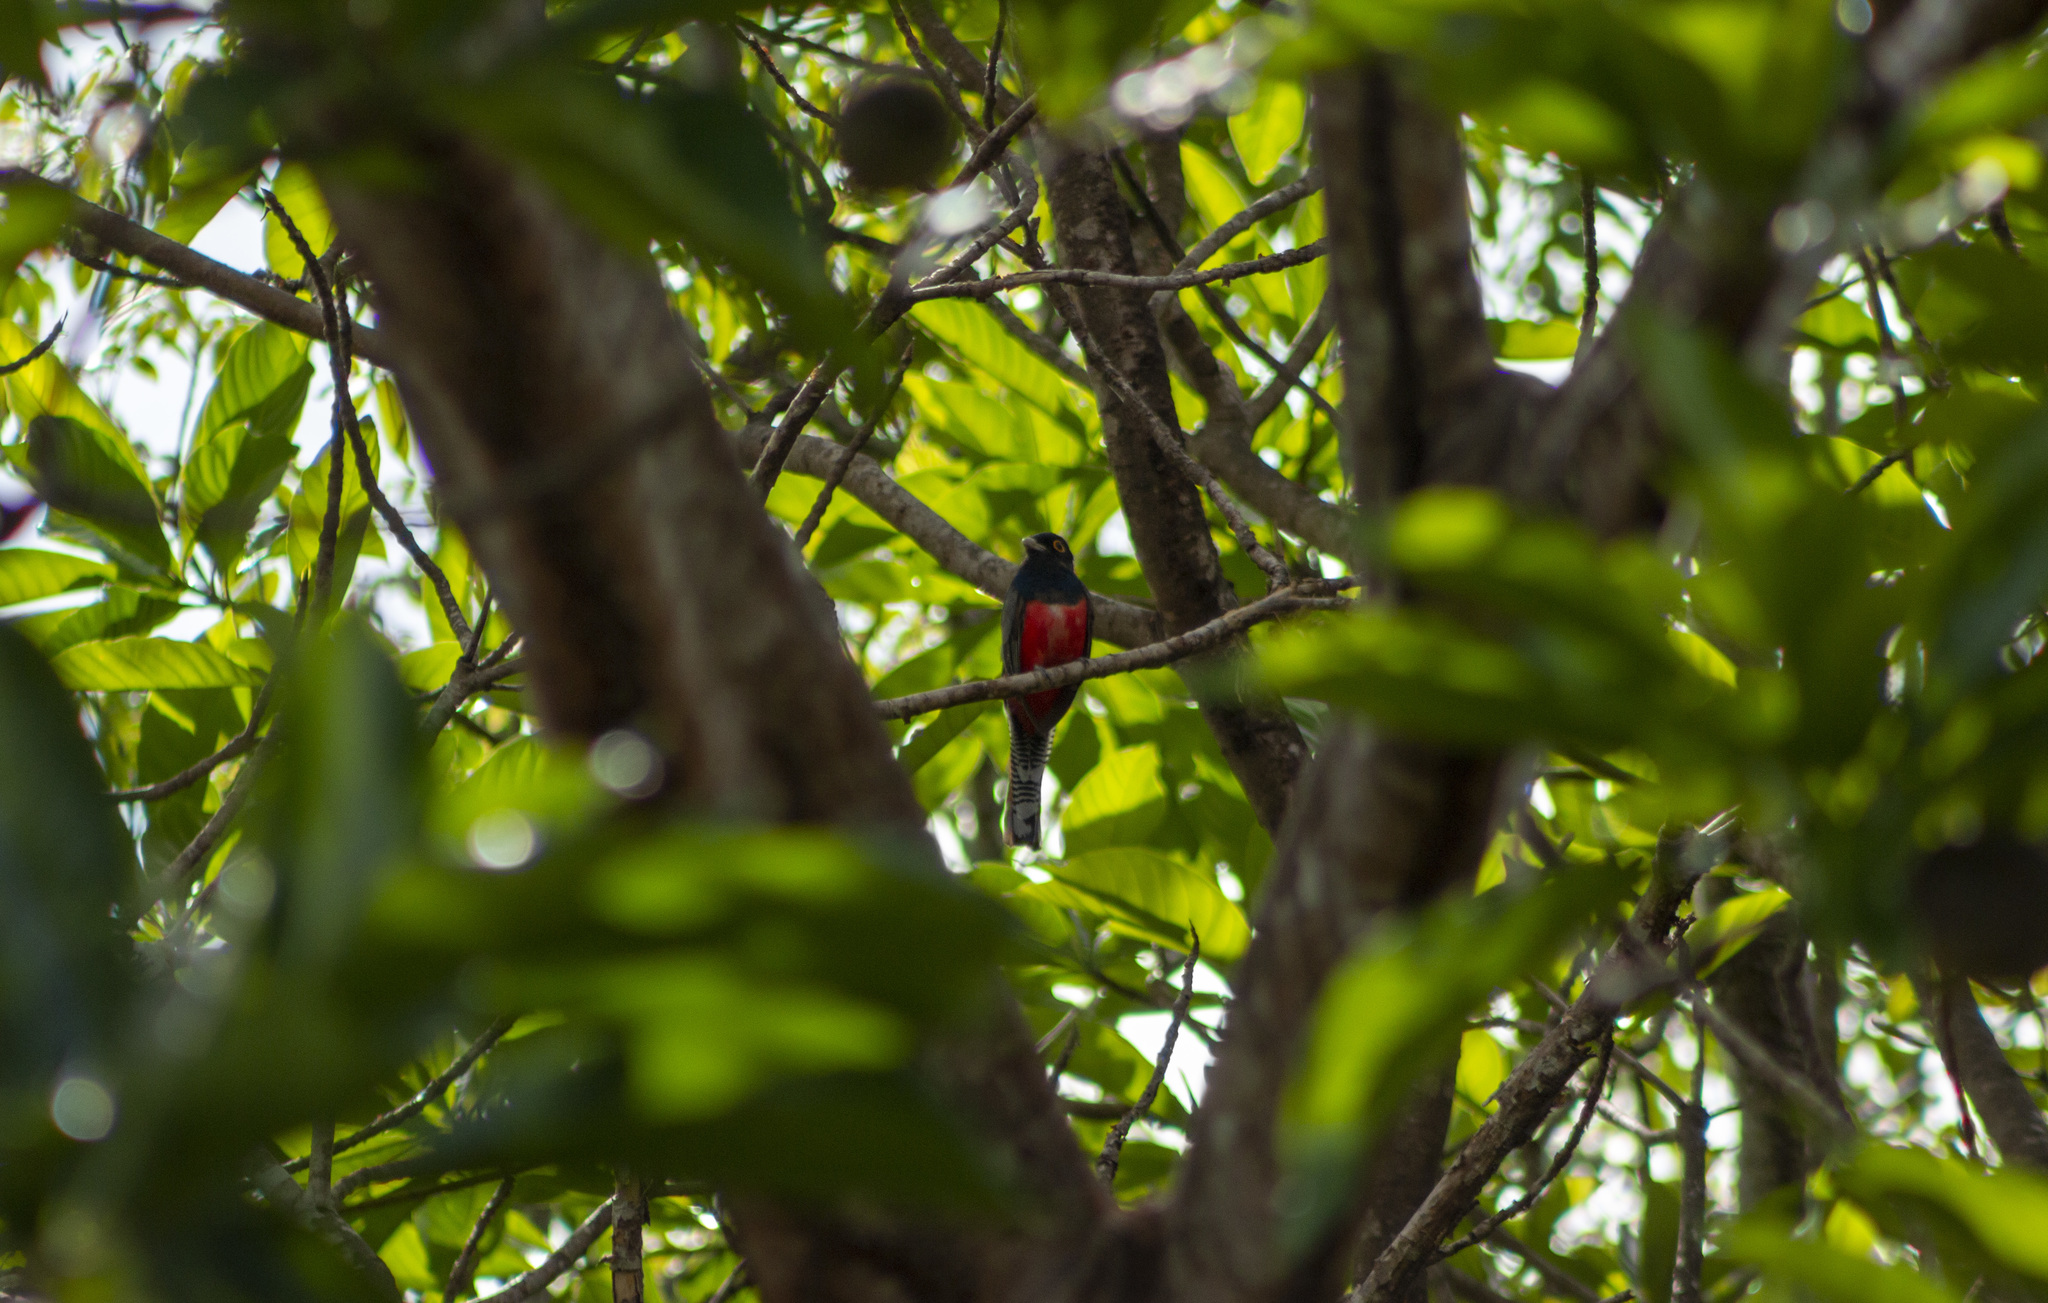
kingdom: Animalia
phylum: Chordata
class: Aves
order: Trogoniformes
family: Trogonidae
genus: Trogon
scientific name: Trogon curucui
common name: Blue-crowned trogon
